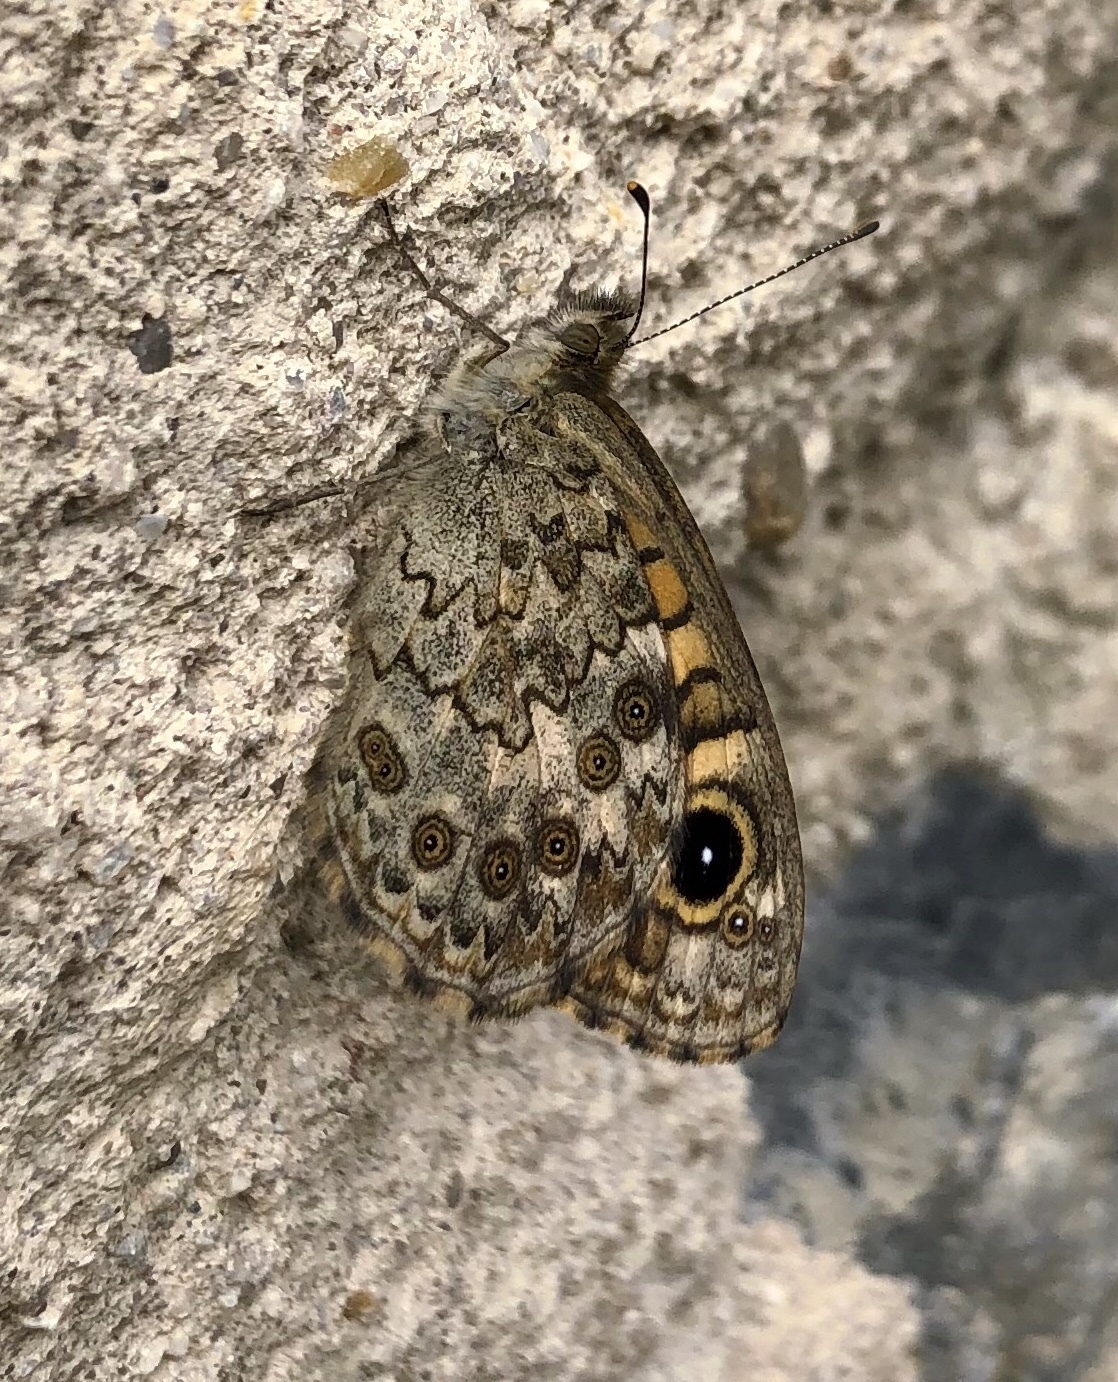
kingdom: Animalia
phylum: Arthropoda
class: Insecta
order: Lepidoptera
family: Nymphalidae
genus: Pararge
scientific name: Pararge Lasiommata megera
